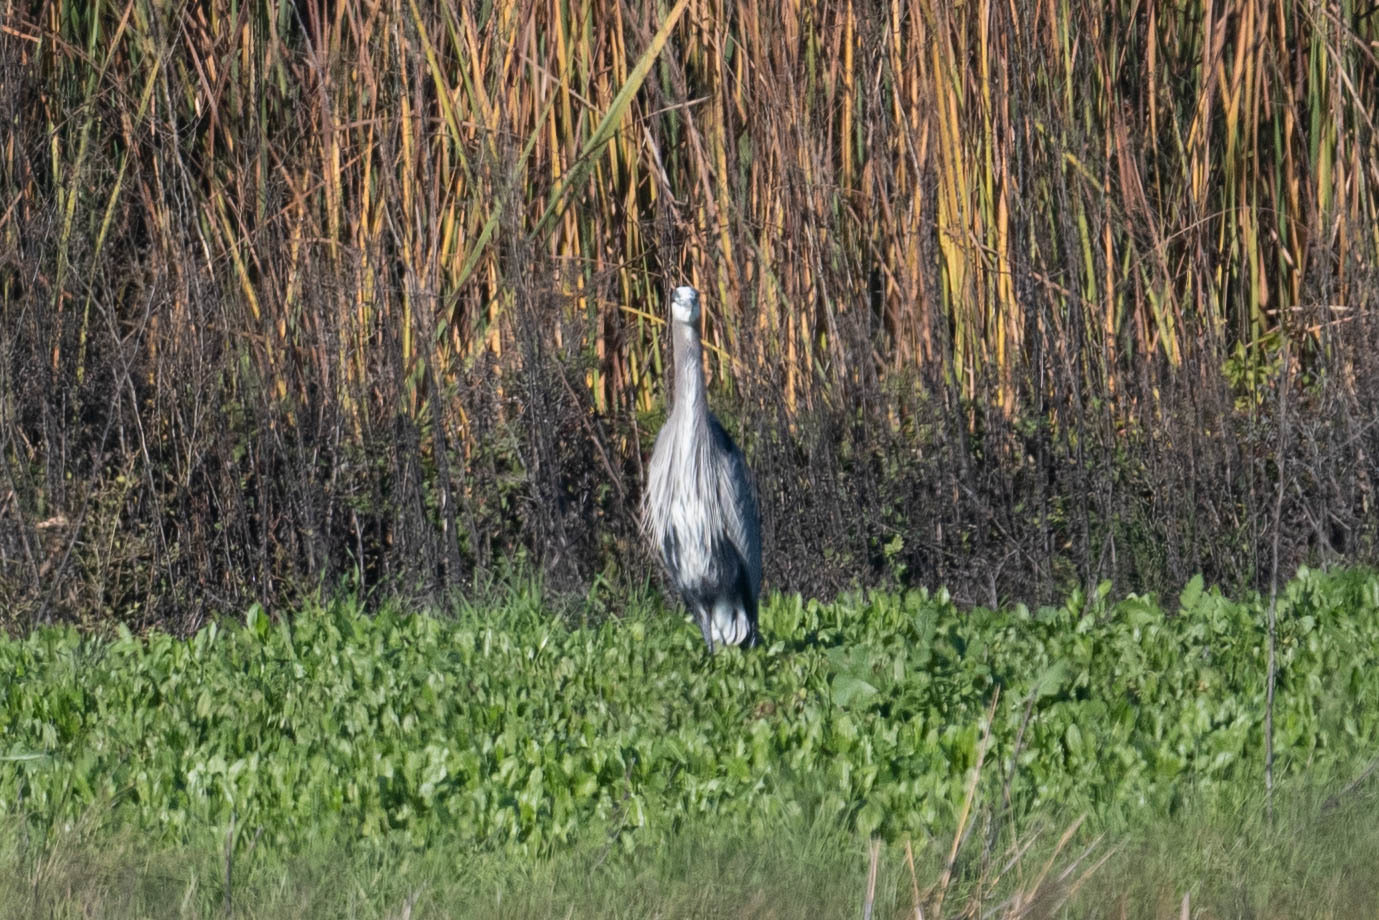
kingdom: Animalia
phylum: Chordata
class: Aves
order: Pelecaniformes
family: Ardeidae
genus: Ardea
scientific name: Ardea herodias
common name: Great blue heron
